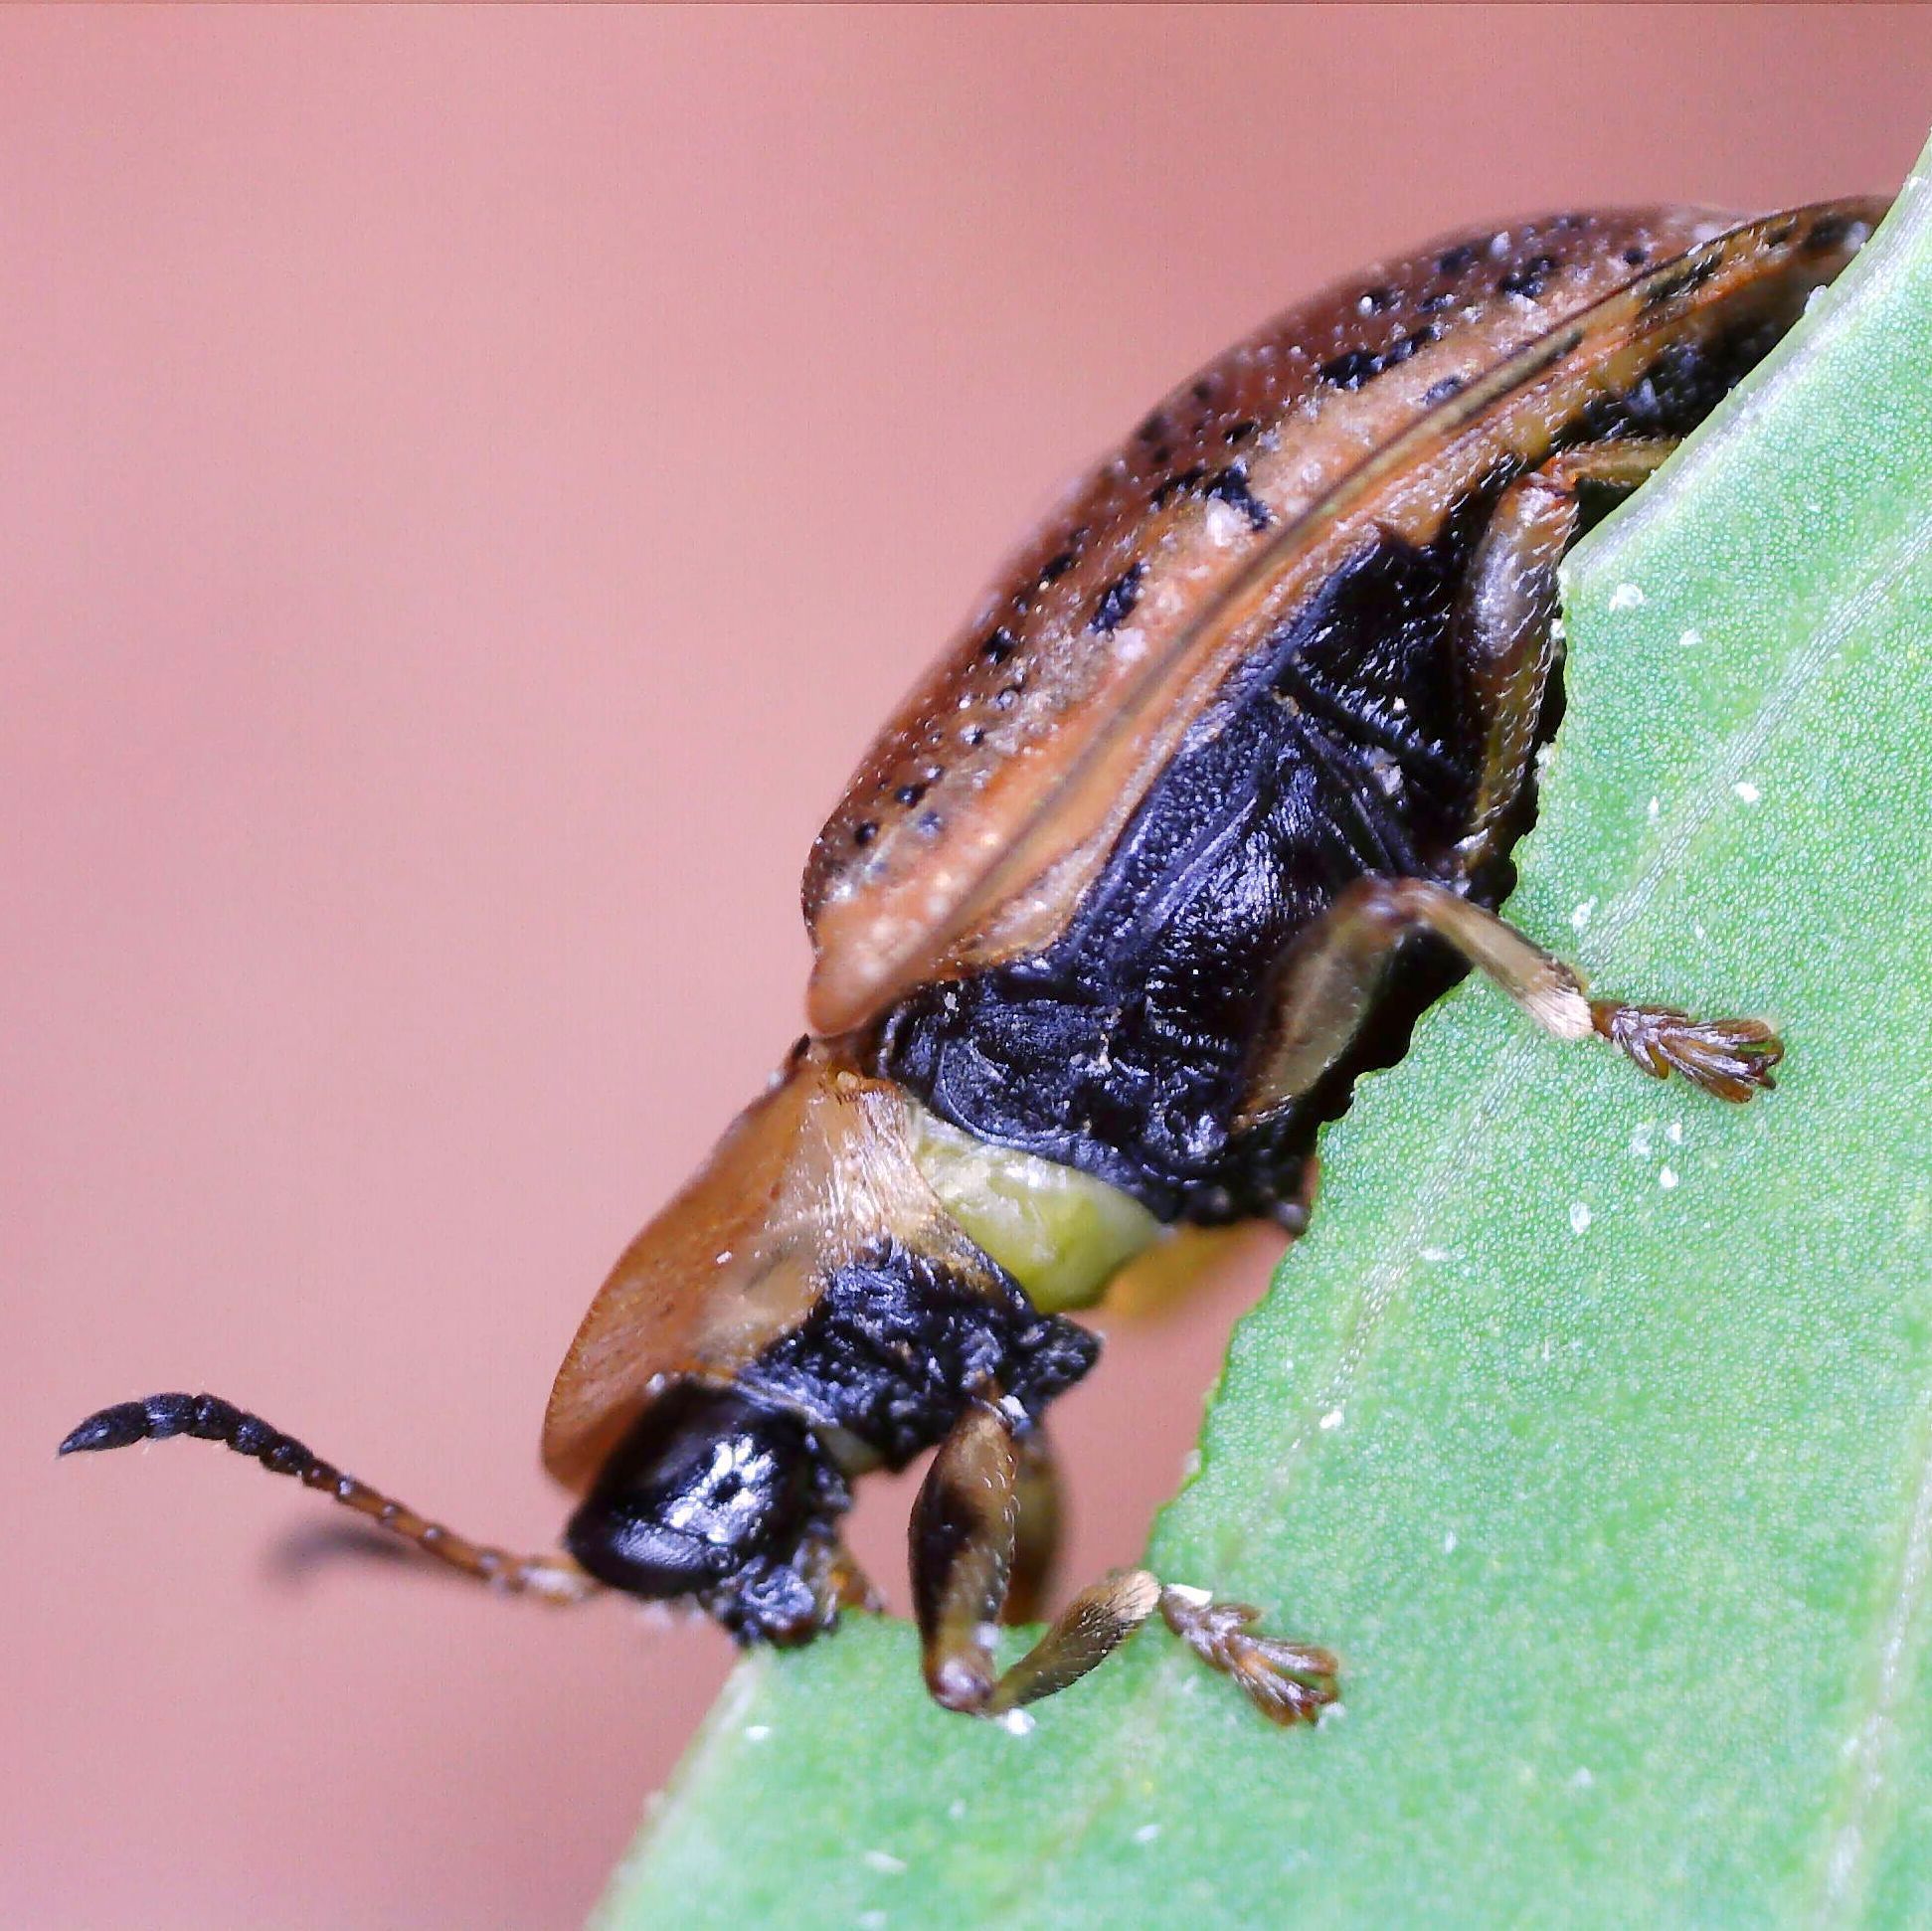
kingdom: Animalia
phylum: Arthropoda
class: Insecta
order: Coleoptera
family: Chrysomelidae
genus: Cassida
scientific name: Cassida nebulosa
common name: Beet tortoise beetle
